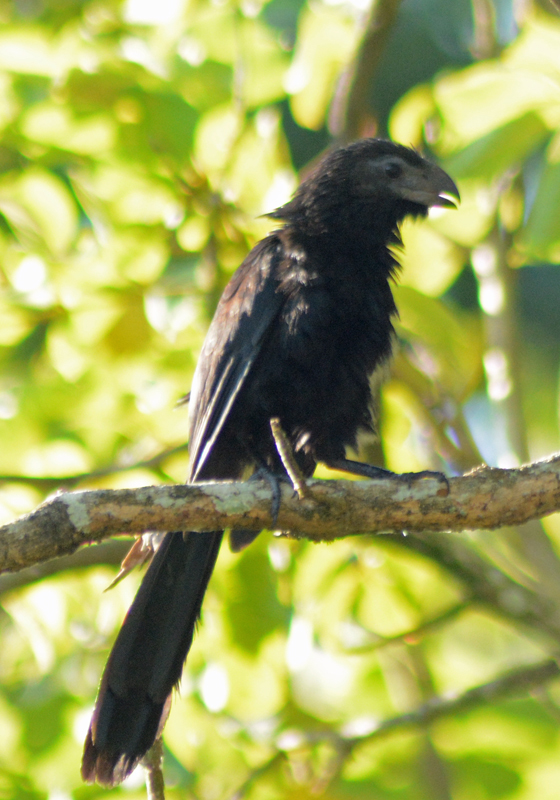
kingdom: Animalia
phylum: Chordata
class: Aves
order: Cuculiformes
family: Cuculidae
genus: Crotophaga
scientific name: Crotophaga sulcirostris
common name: Groove-billed ani
